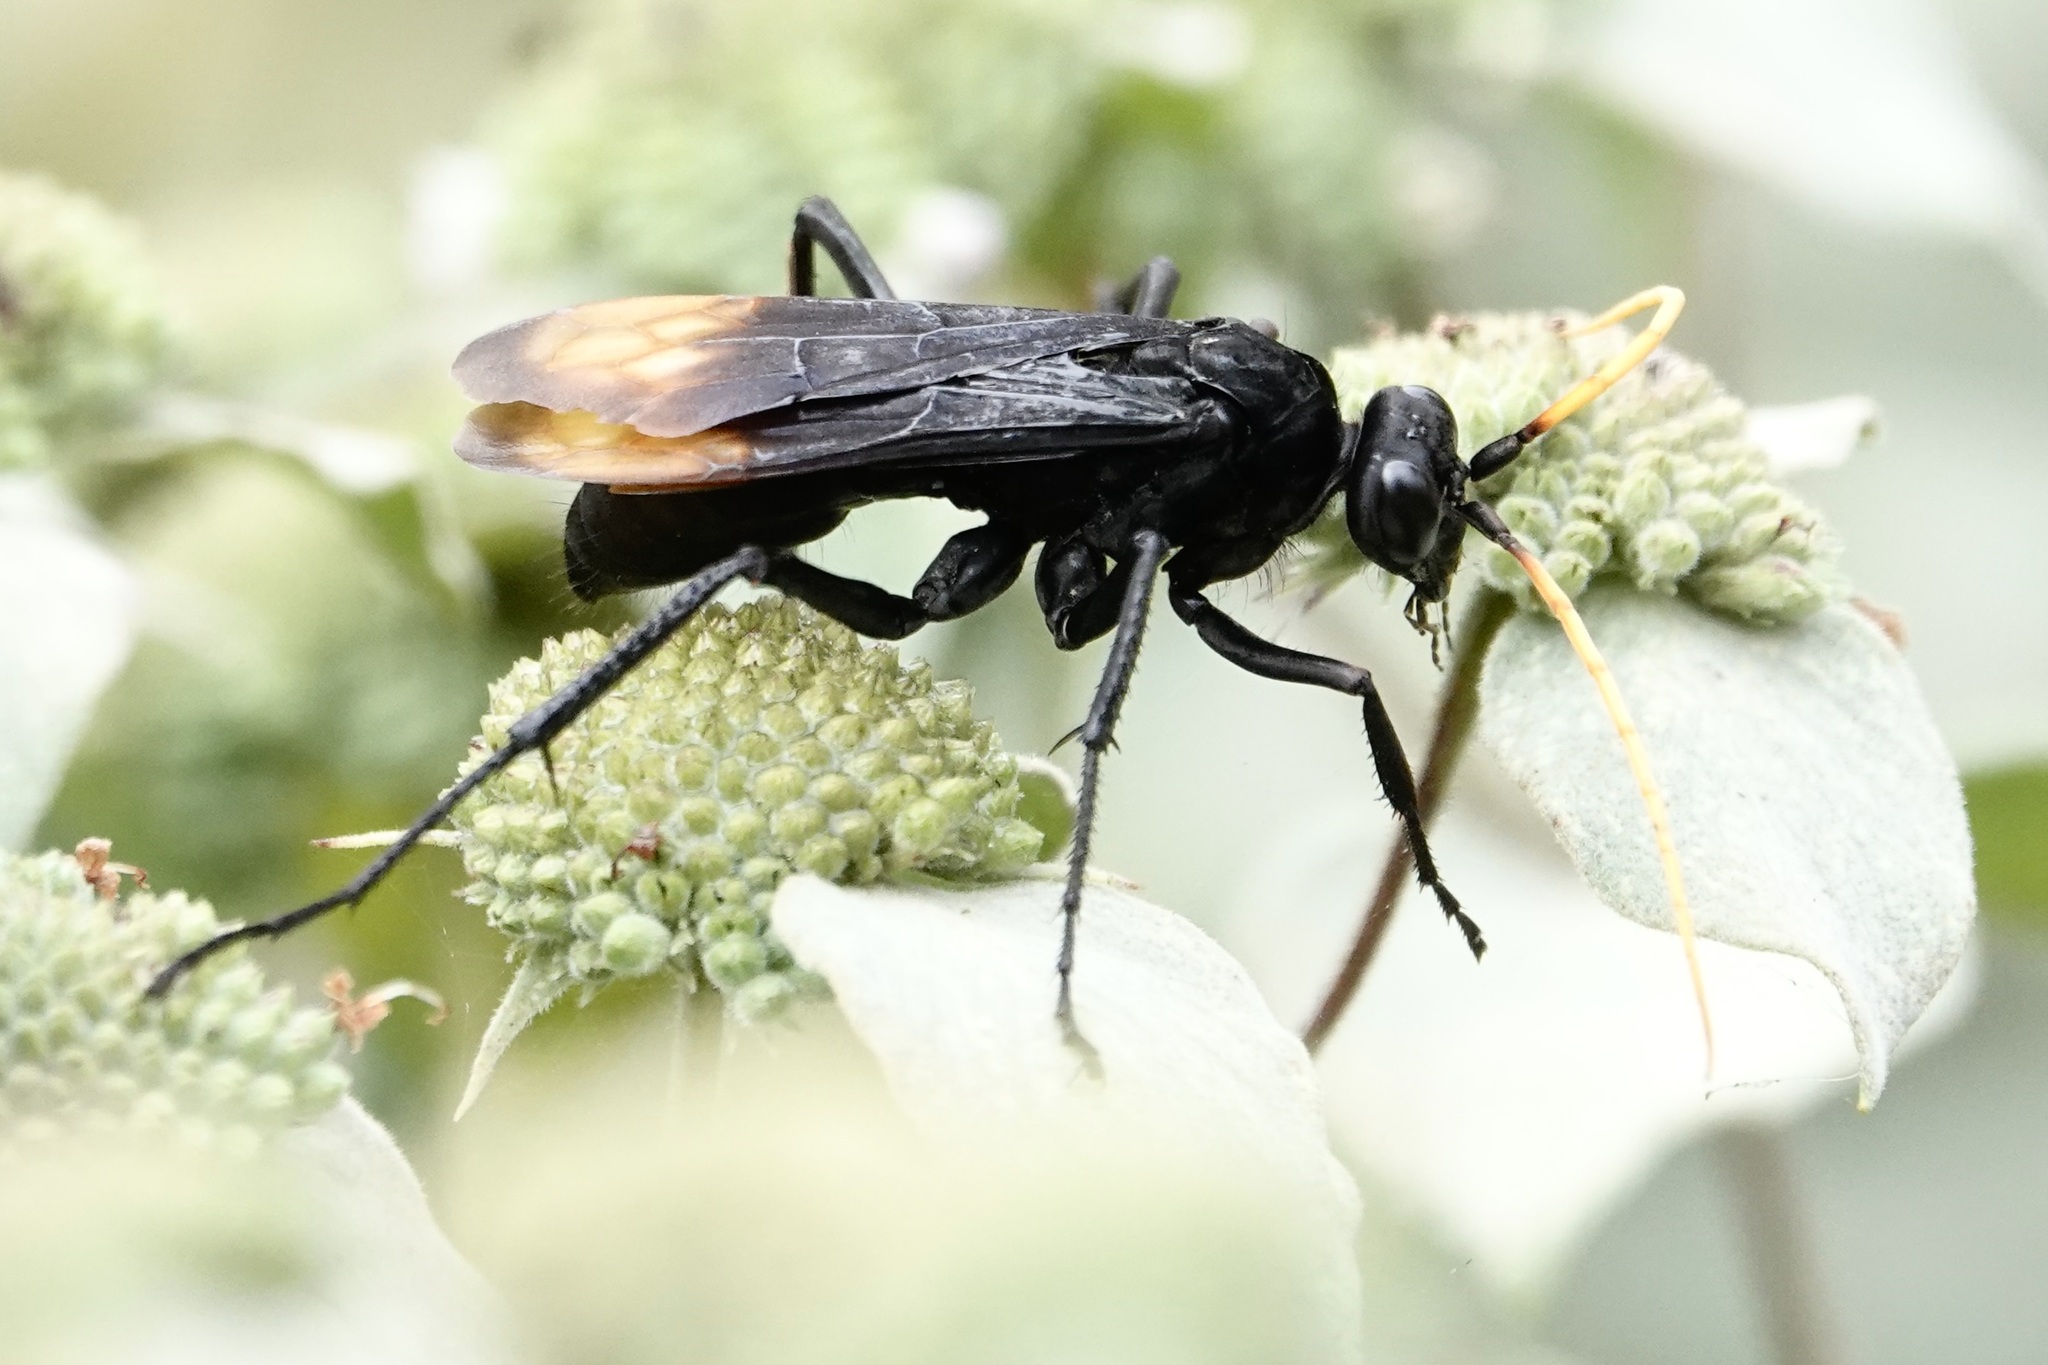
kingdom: Animalia
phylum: Arthropoda
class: Insecta
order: Hymenoptera
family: Pompilidae
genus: Entypus
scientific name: Entypus unifasciatus
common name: Eastern tawny-horned spider wasp
